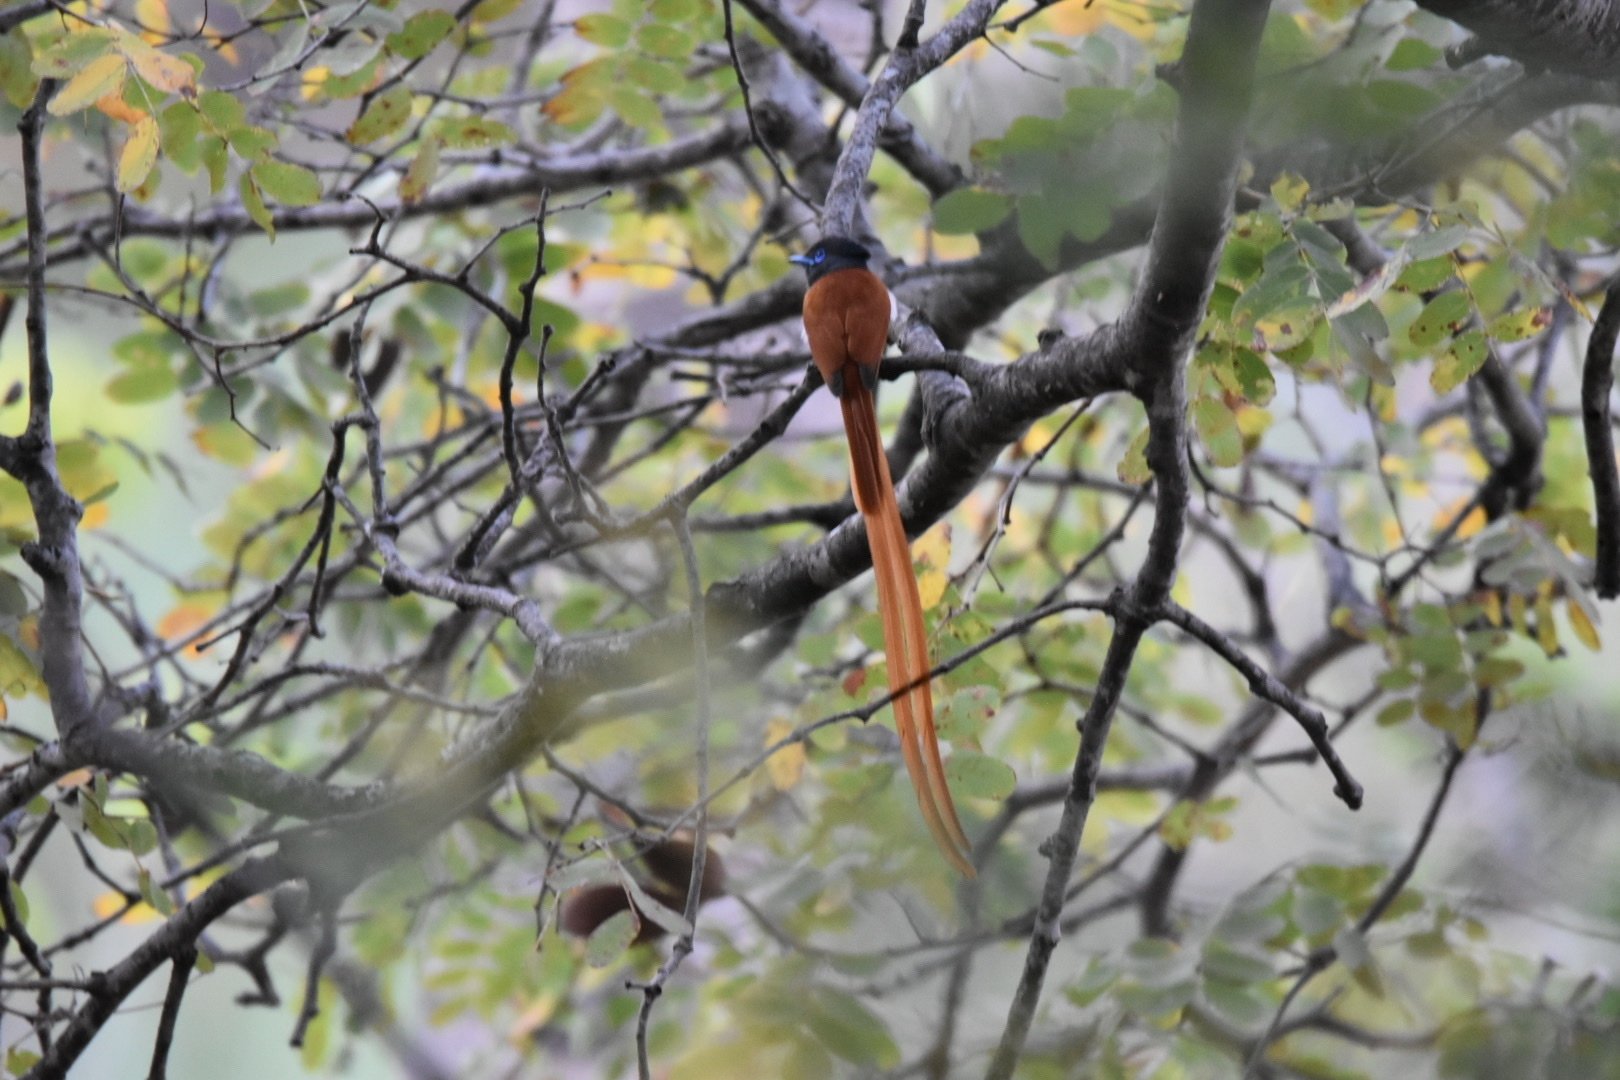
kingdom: Animalia
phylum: Chordata
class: Aves
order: Passeriformes
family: Monarchidae
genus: Terpsiphone
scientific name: Terpsiphone viridis
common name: African paradise flycatcher
